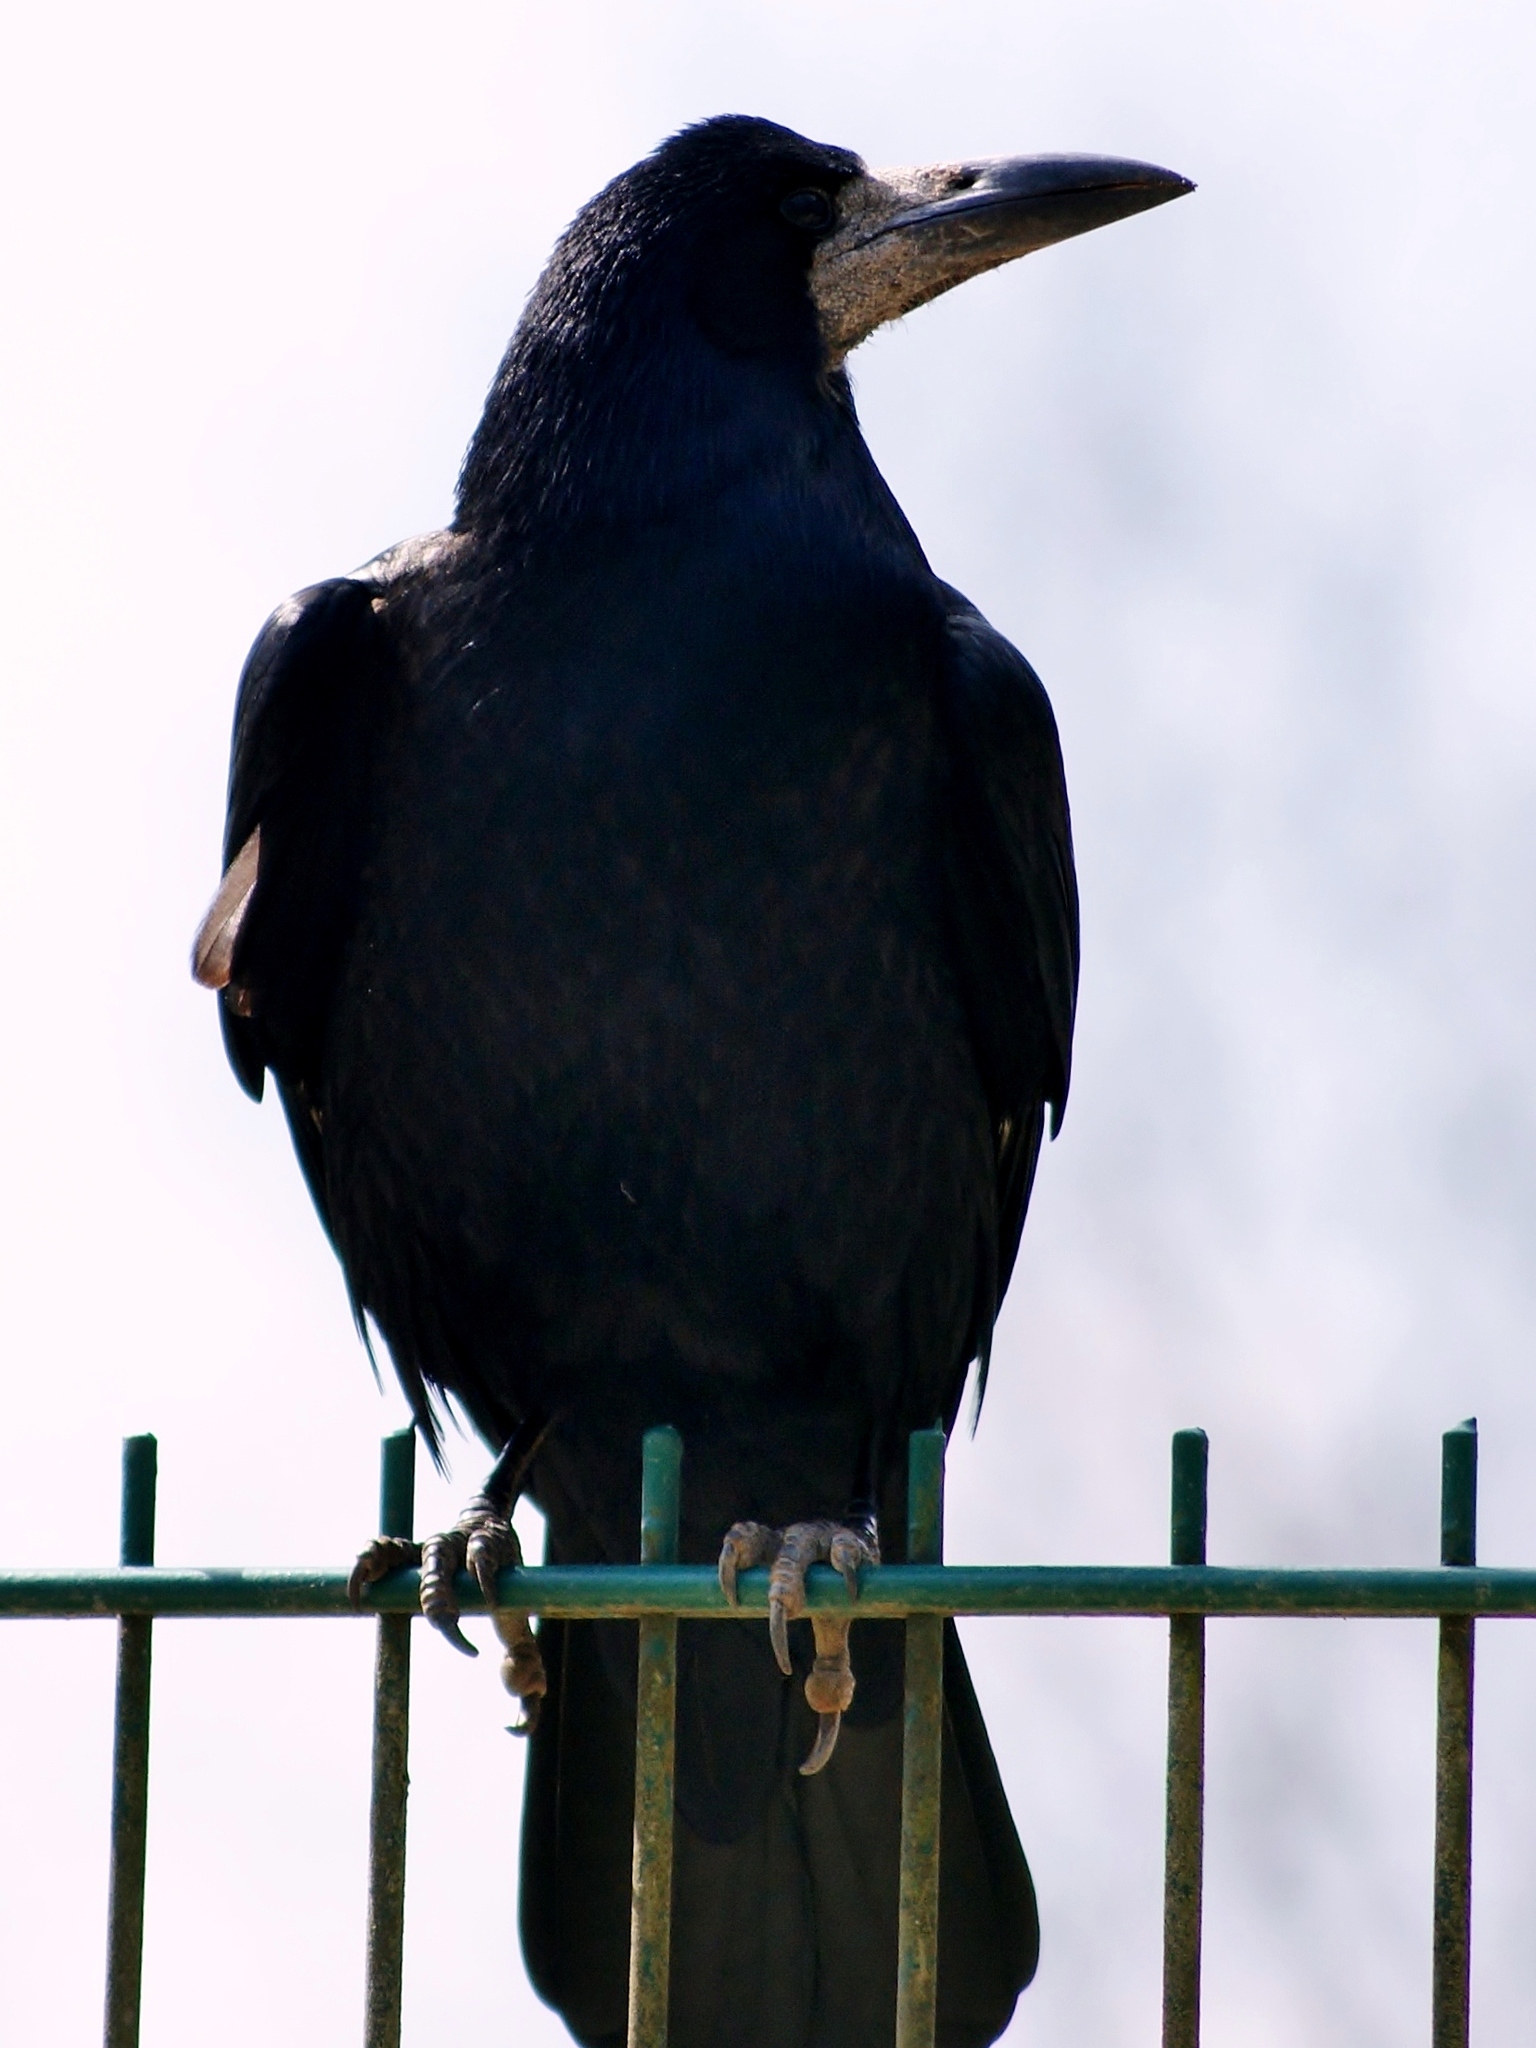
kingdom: Animalia
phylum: Chordata
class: Aves
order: Passeriformes
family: Corvidae
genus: Corvus
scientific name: Corvus frugilegus
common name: Rook
